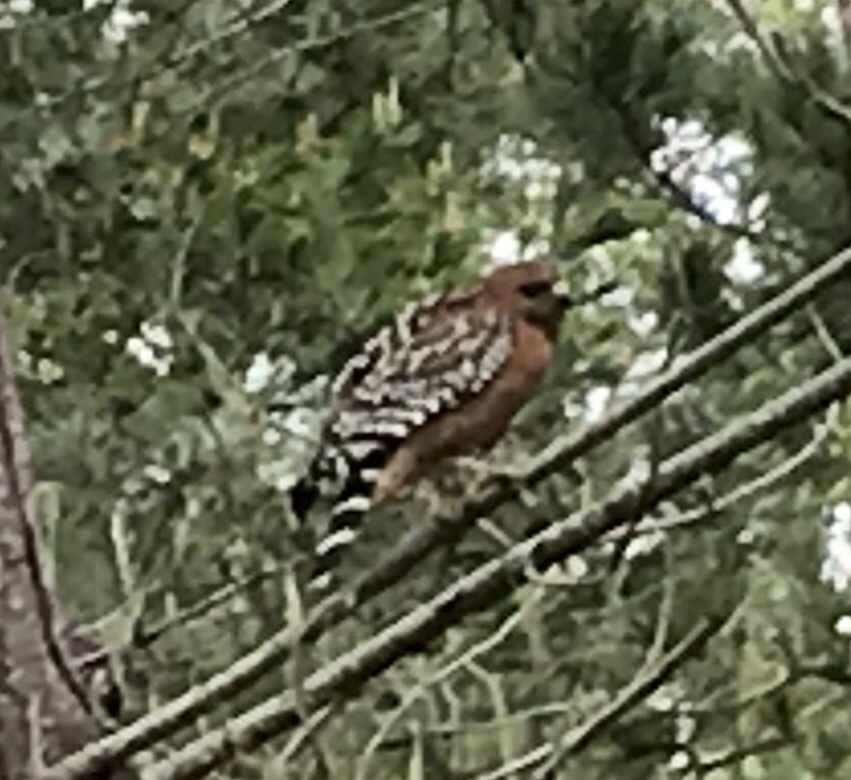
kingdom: Animalia
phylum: Chordata
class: Aves
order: Accipitriformes
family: Accipitridae
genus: Buteo
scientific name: Buteo lineatus
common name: Red-shouldered hawk
